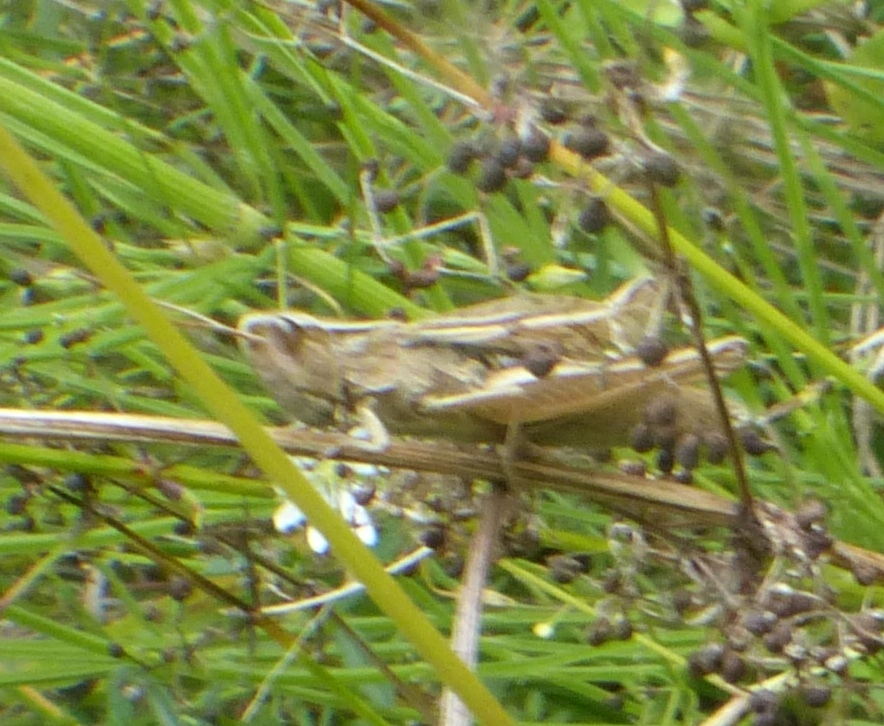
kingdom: Animalia
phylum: Arthropoda
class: Insecta
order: Orthoptera
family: Acrididae
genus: Chorthippus
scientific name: Chorthippus albomarginatus
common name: Lesser marsh grasshopper
